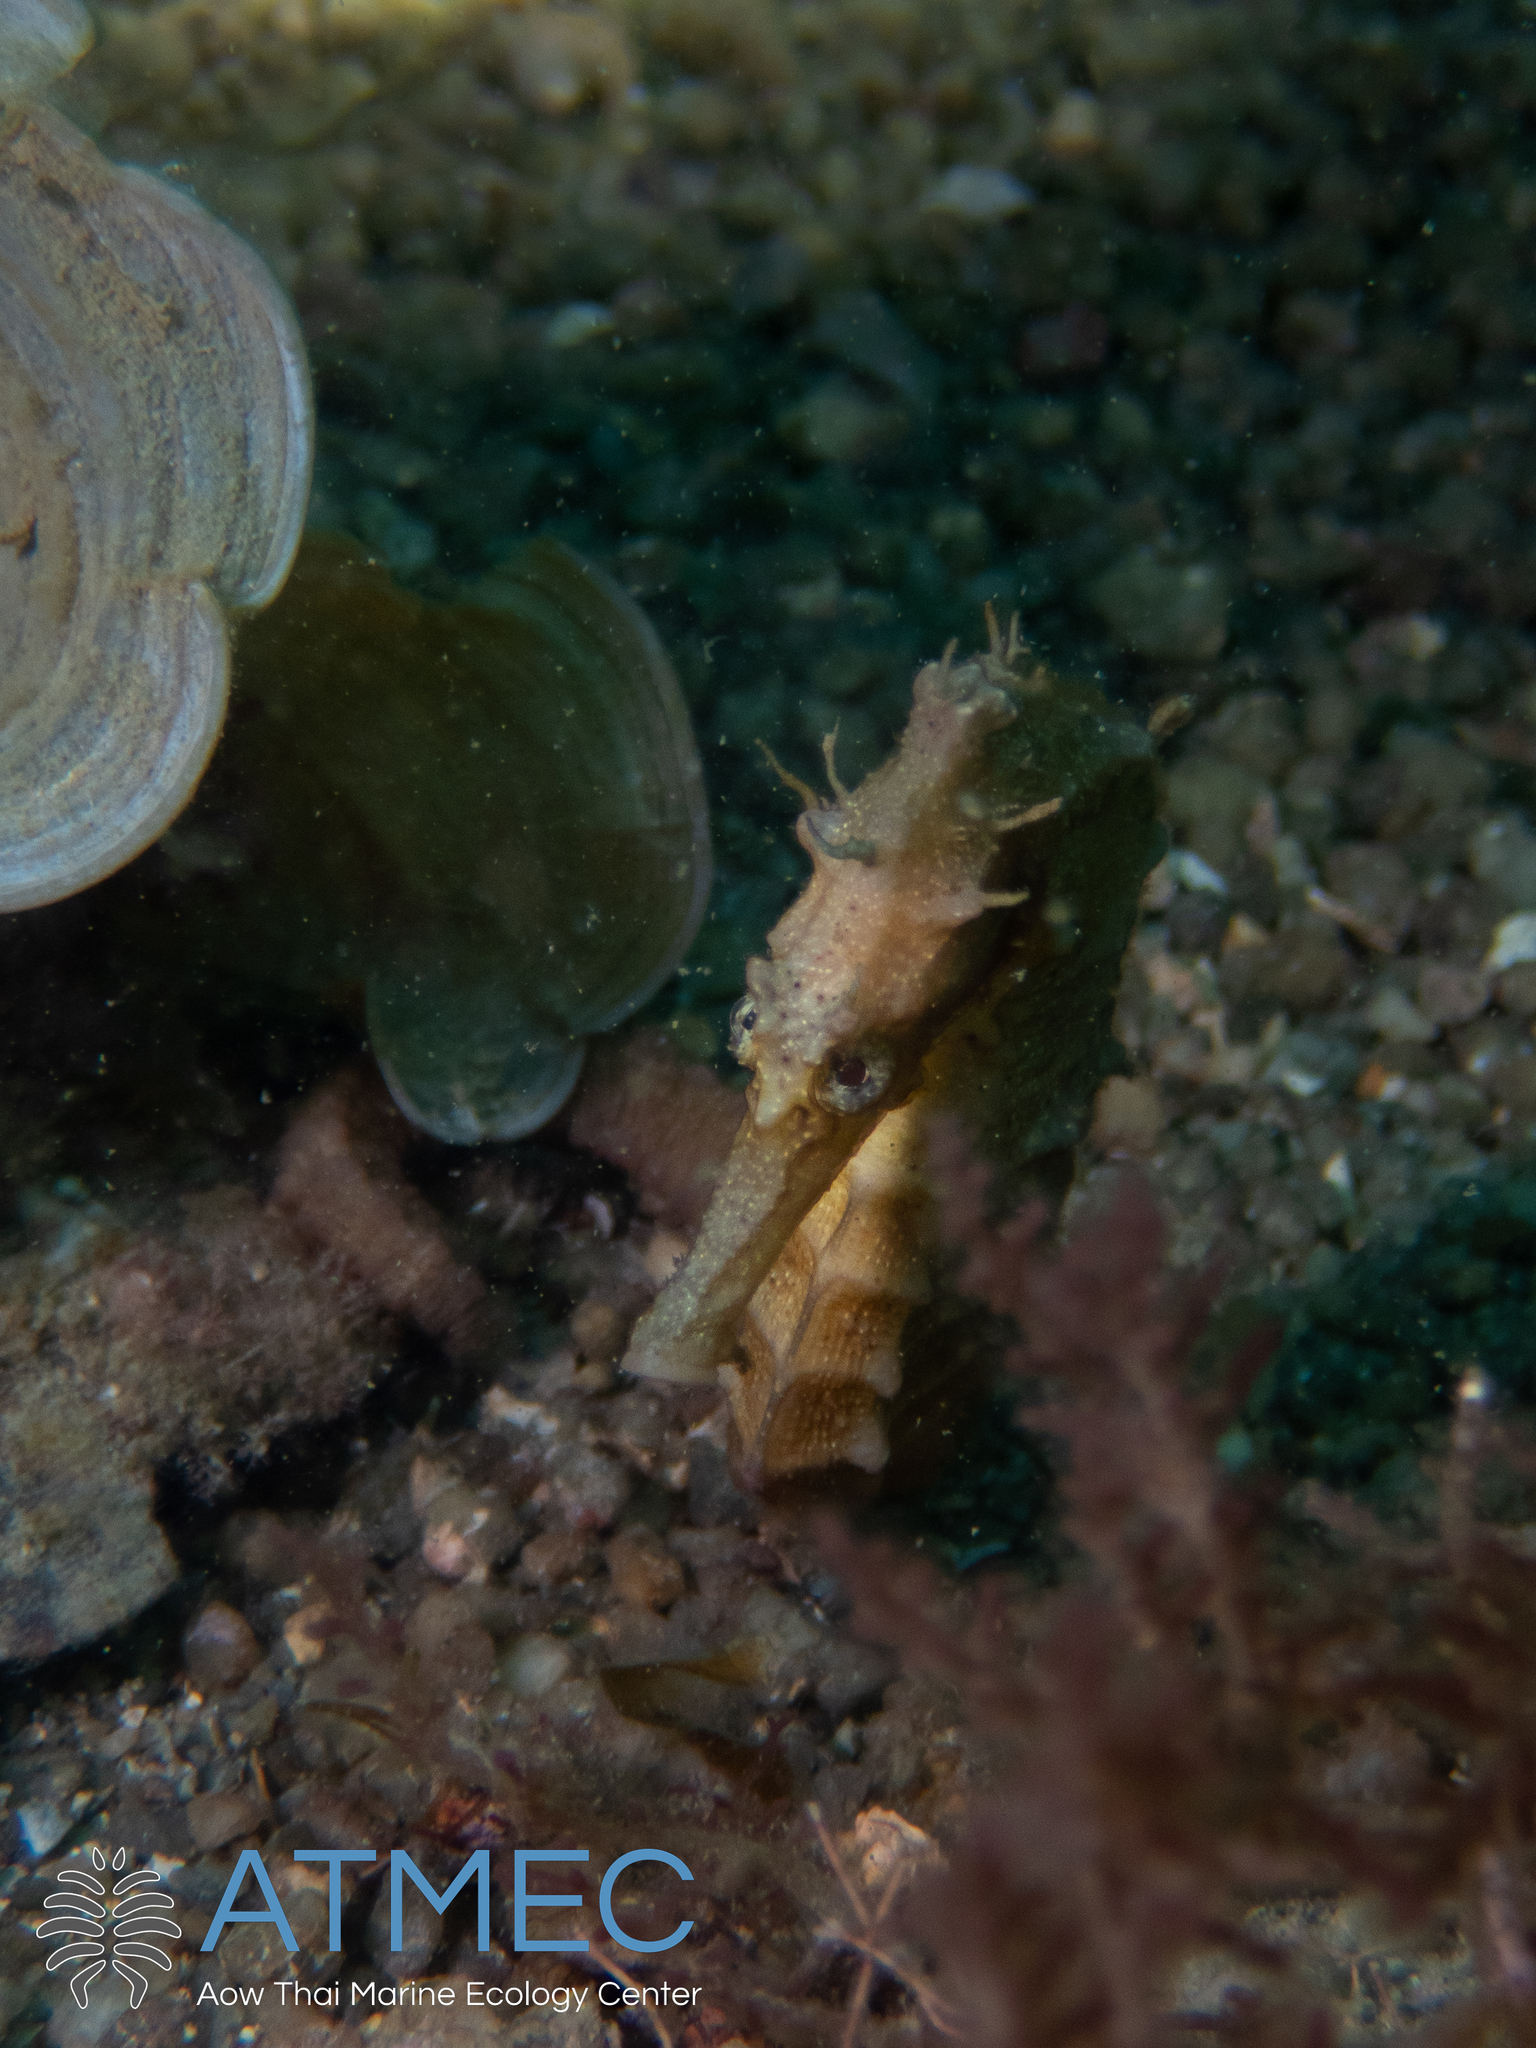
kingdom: Animalia
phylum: Chordata
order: Syngnathiformes
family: Syngnathidae
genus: Hippocampus
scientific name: Hippocampus kuda
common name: Spotted seahorse
